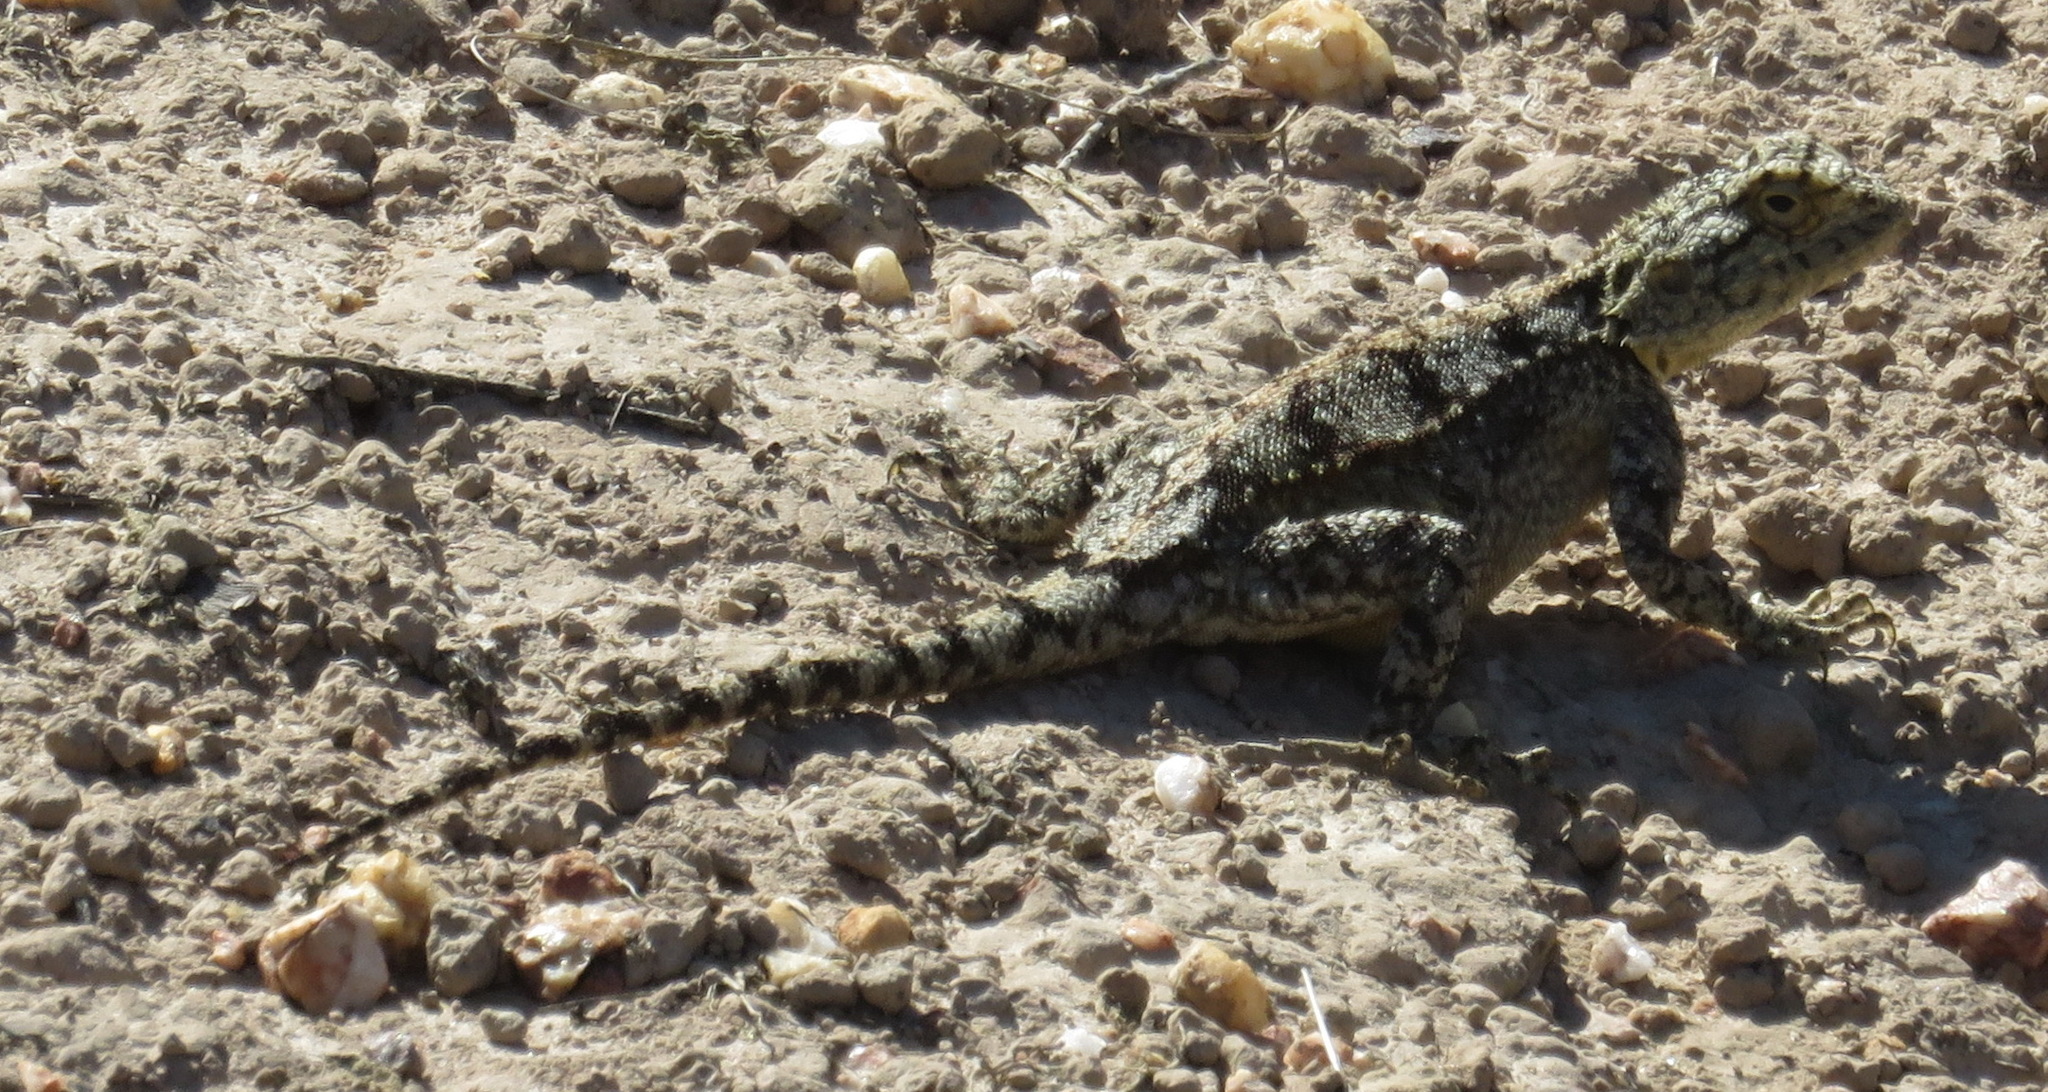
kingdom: Animalia
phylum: Chordata
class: Squamata
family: Agamidae
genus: Agama
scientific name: Agama atra
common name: Southern african rock agama
